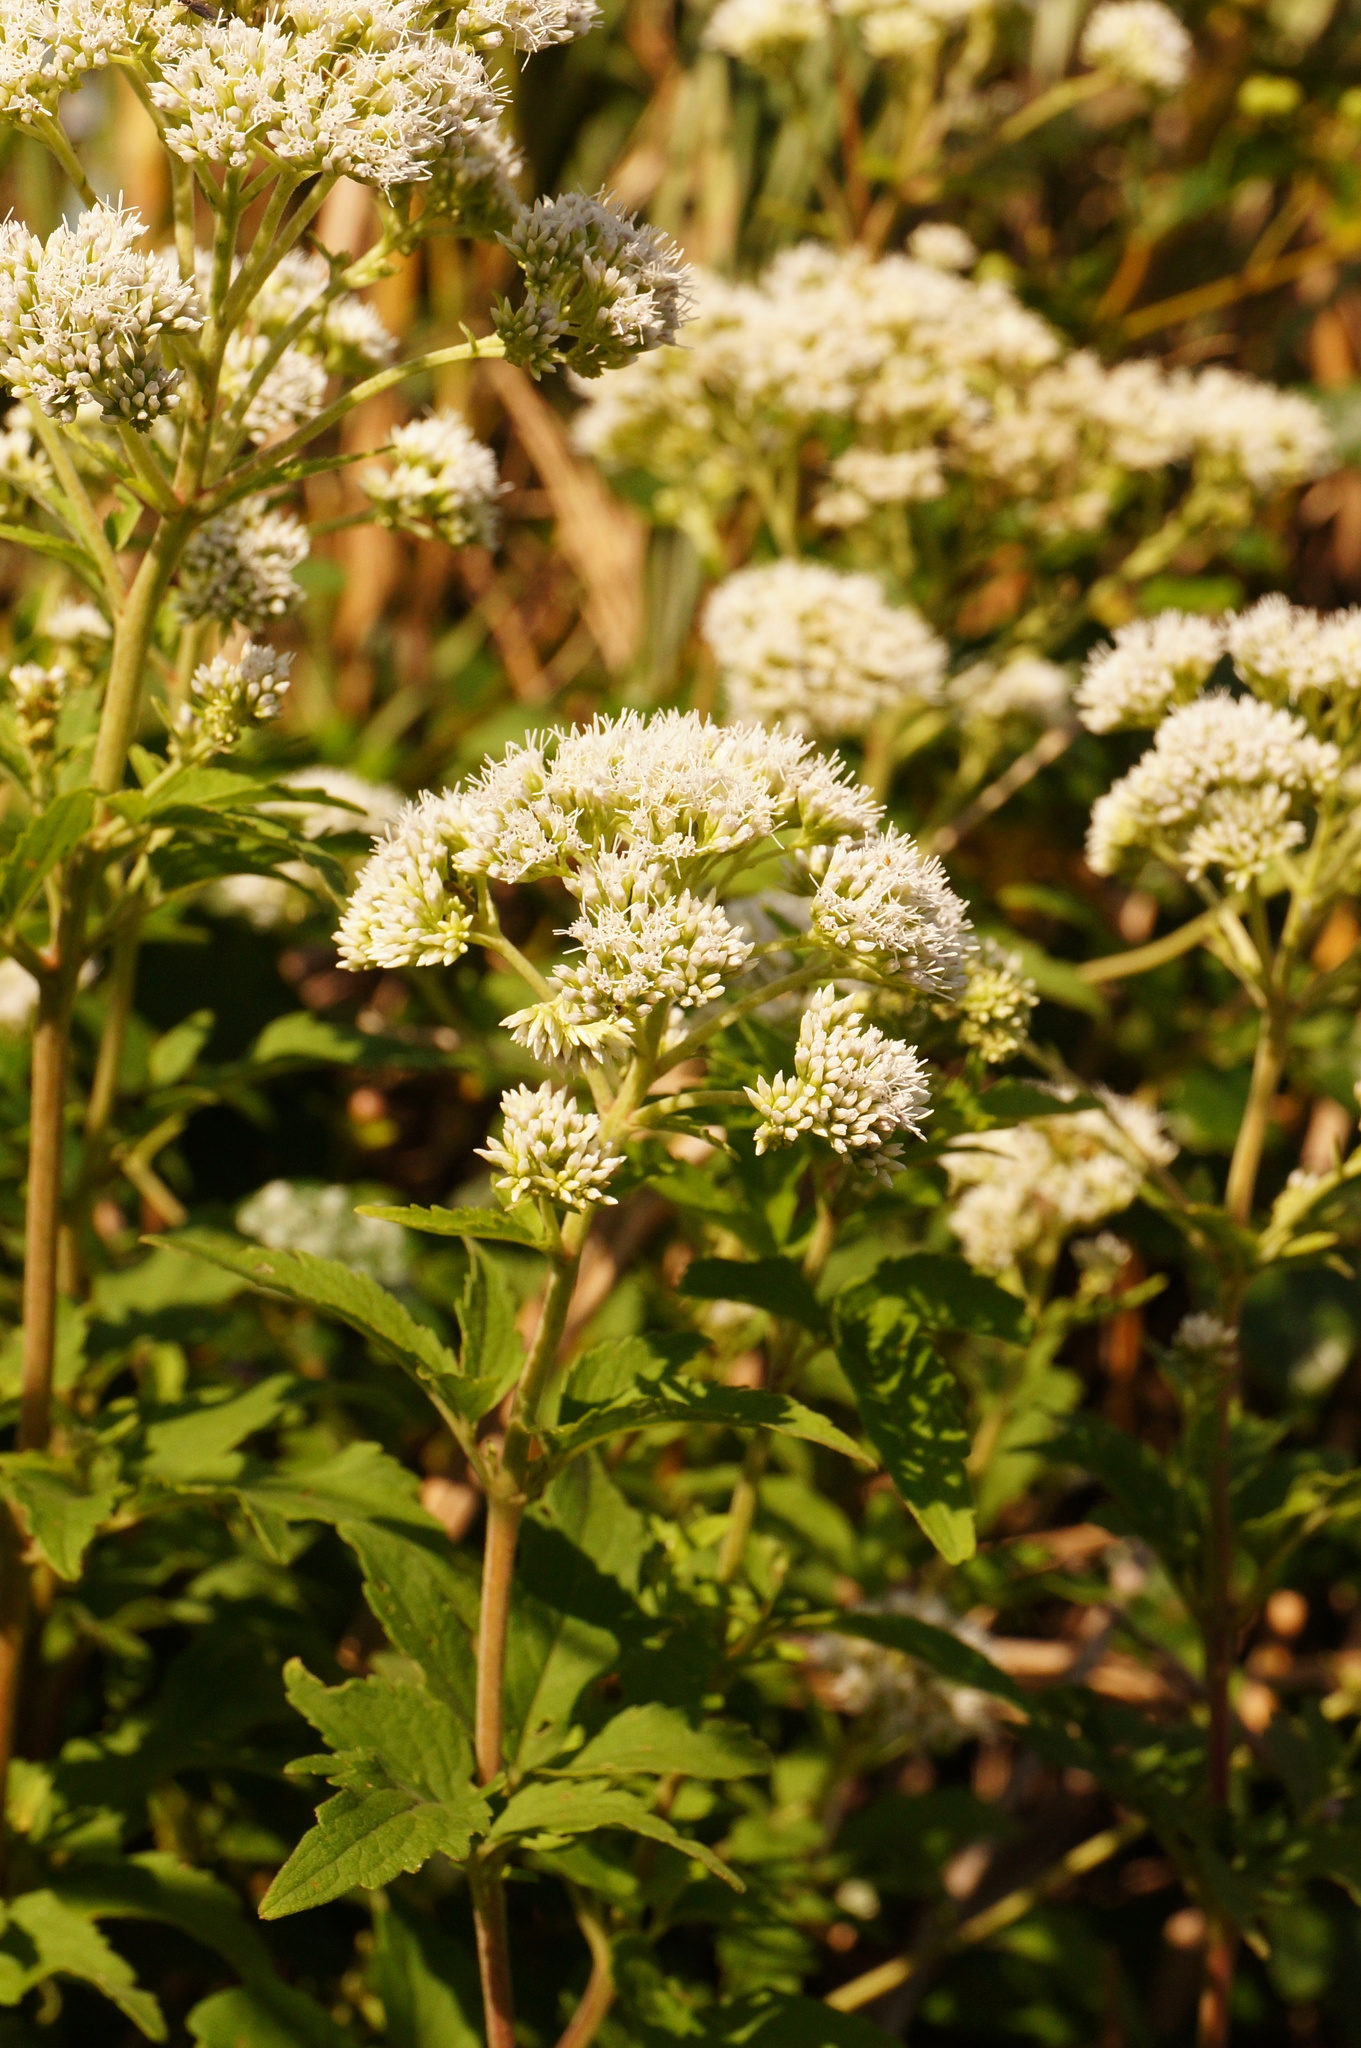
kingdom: Plantae
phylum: Tracheophyta
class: Magnoliopsida
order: Asterales
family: Asteraceae
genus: Eupatorium
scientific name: Eupatorium formosanum
